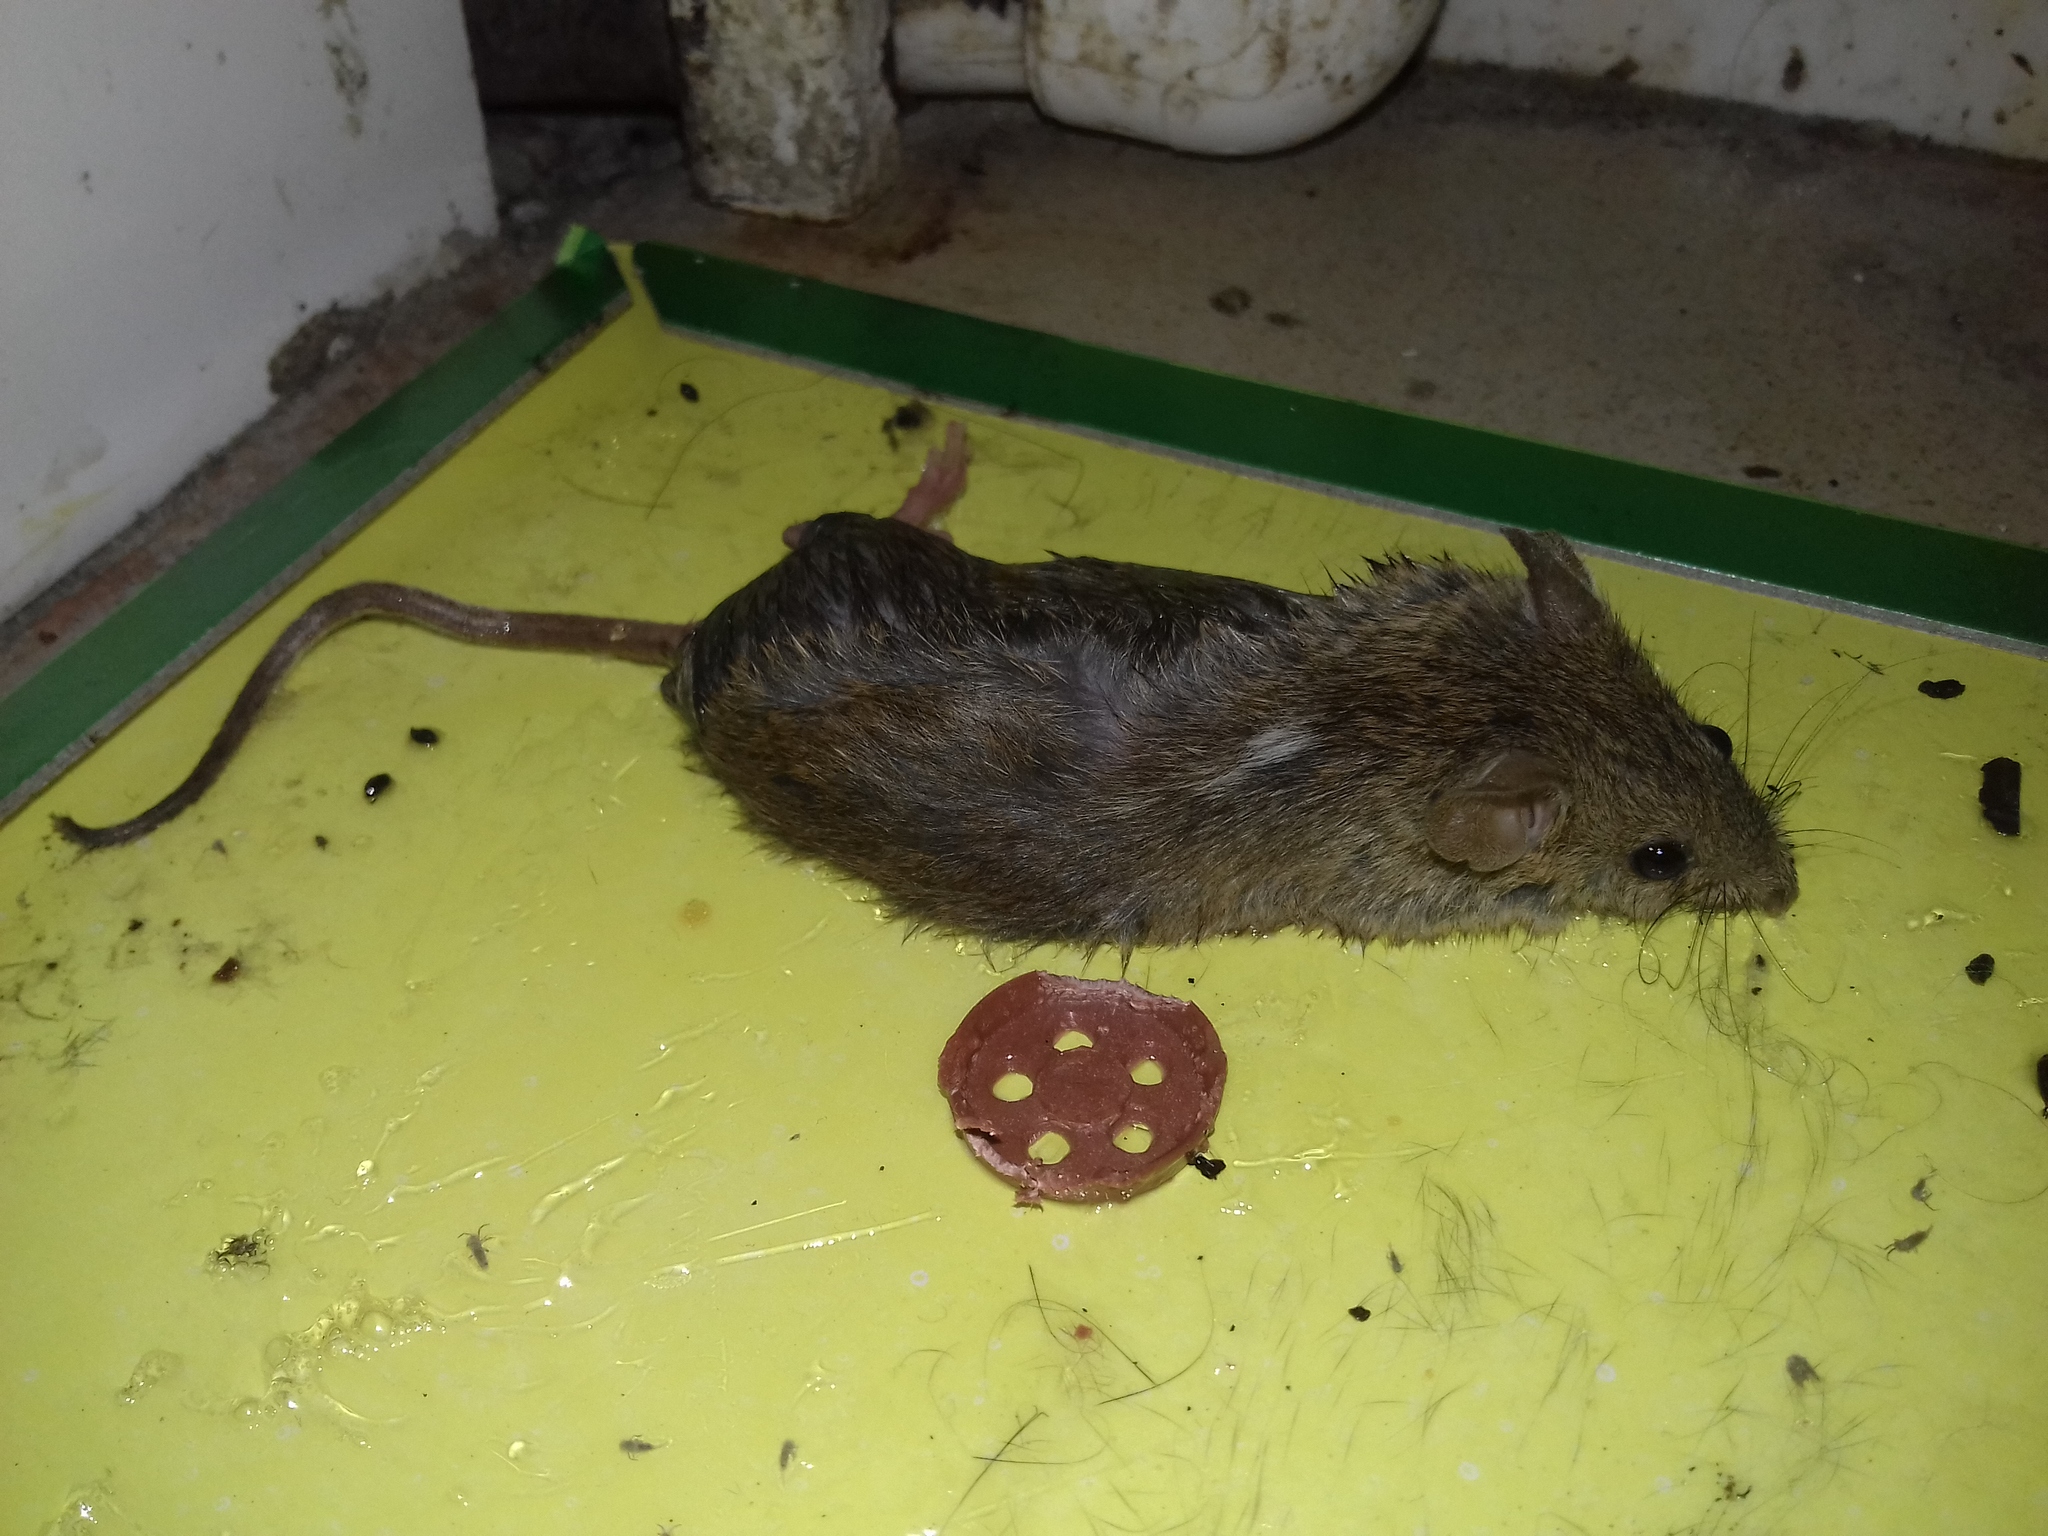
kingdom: Animalia
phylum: Chordata
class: Mammalia
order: Rodentia
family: Muridae
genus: Mus
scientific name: Mus musculus
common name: House mouse
